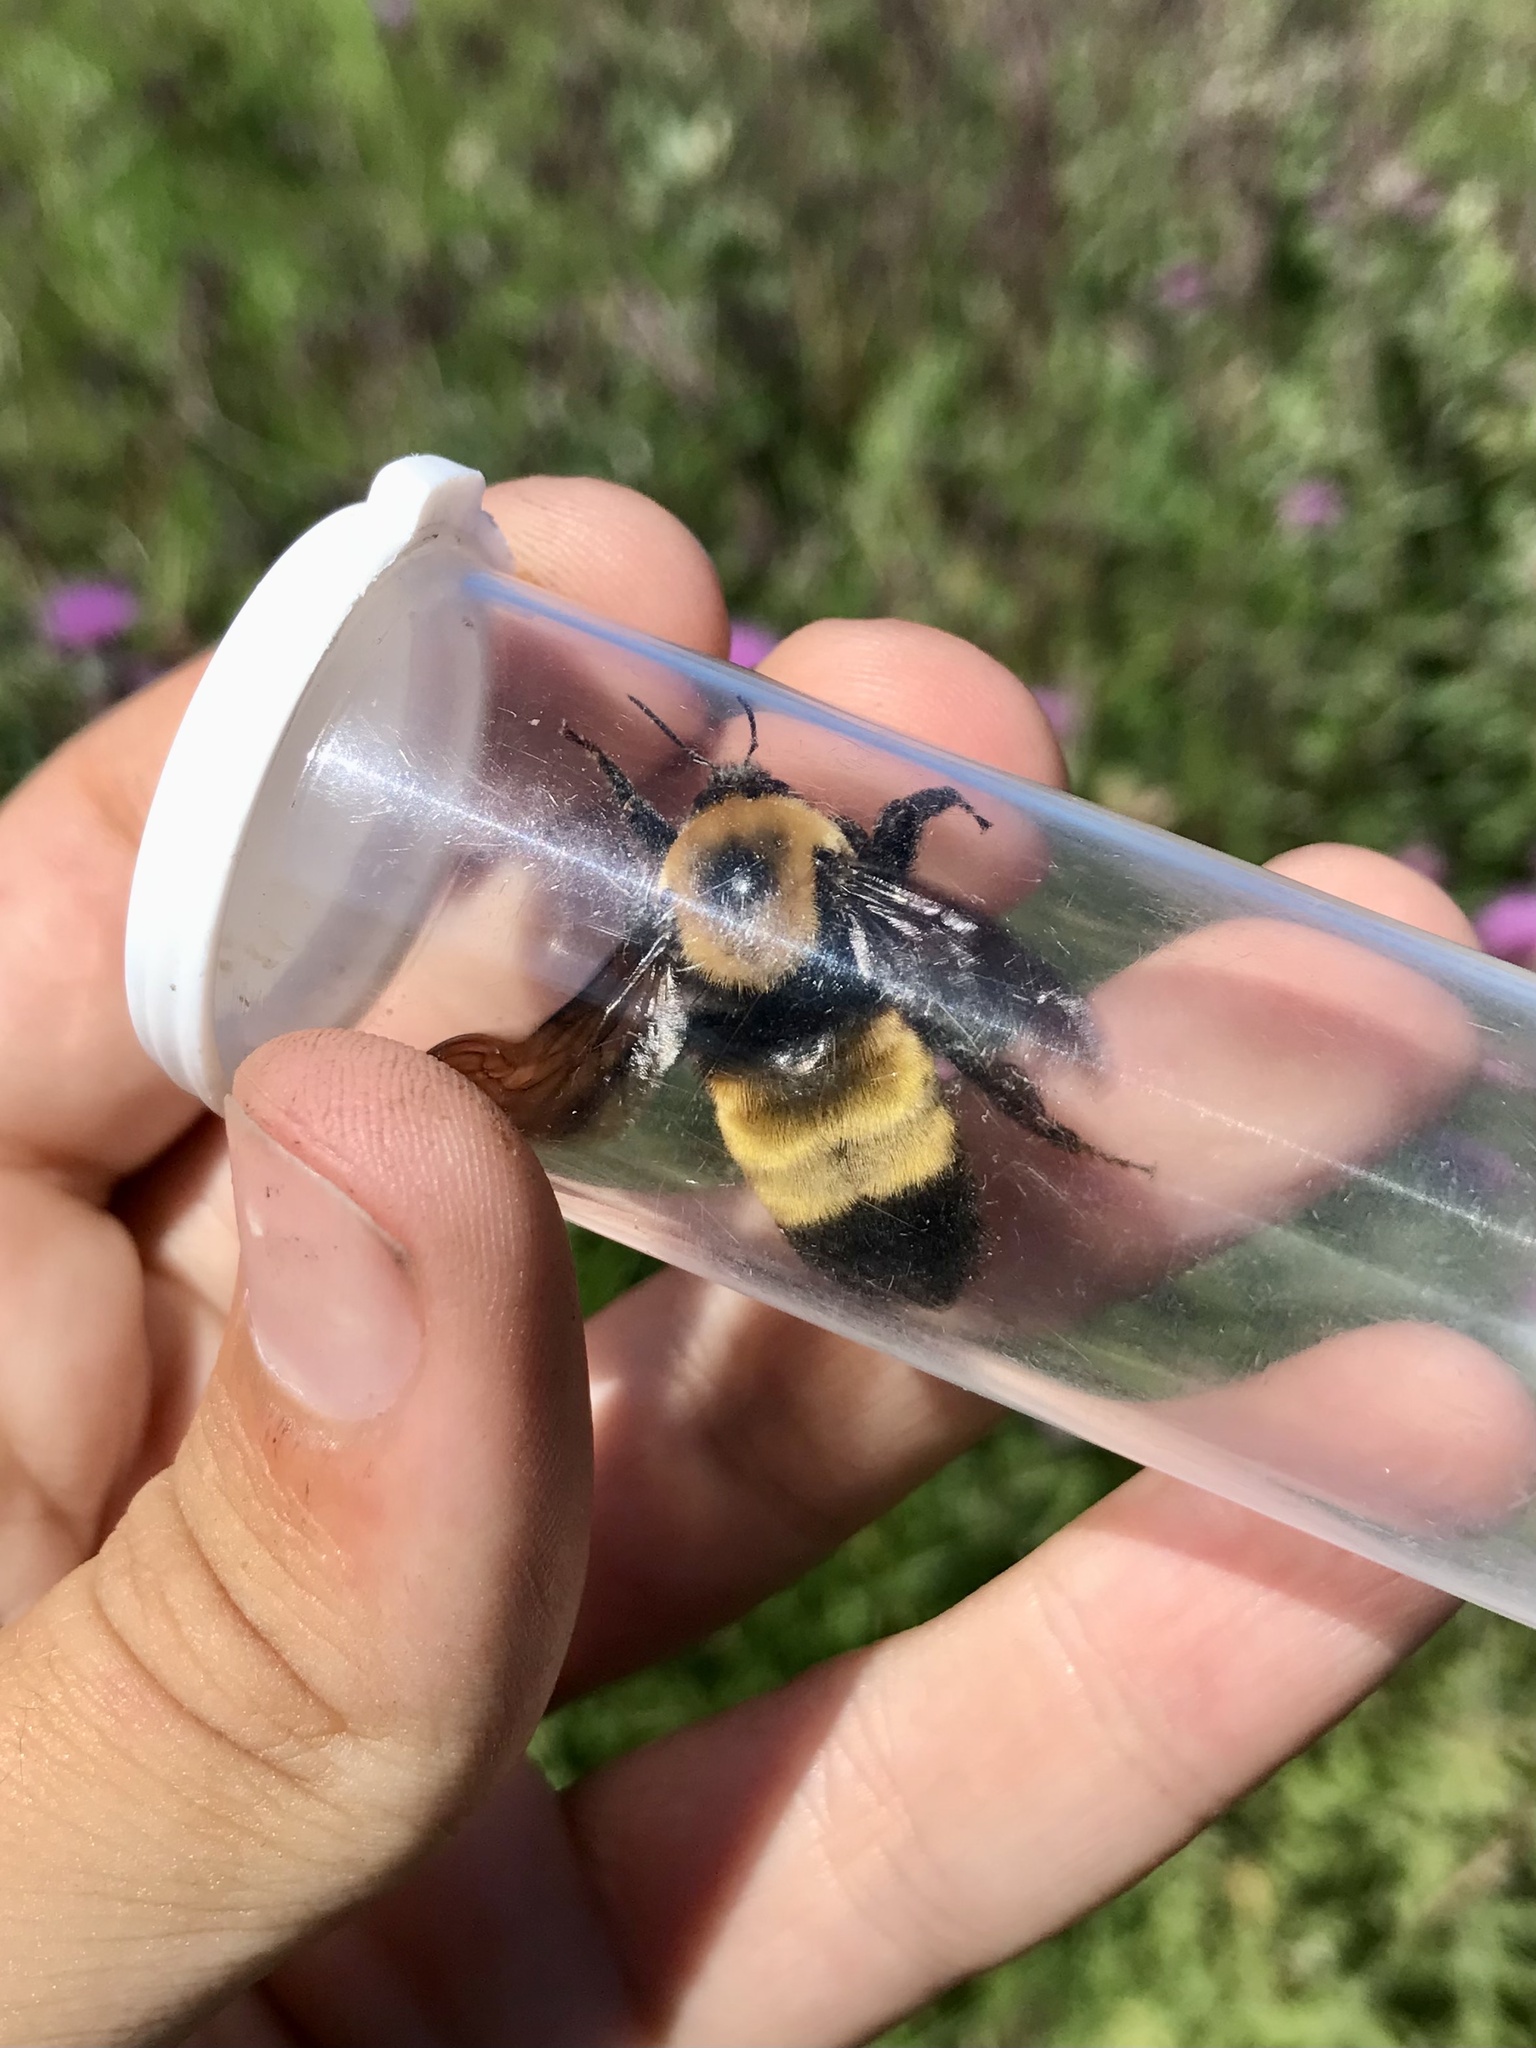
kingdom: Animalia
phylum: Arthropoda
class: Insecta
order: Hymenoptera
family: Apidae
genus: Bombus
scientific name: Bombus nevadensis
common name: Nevada bumble bee
